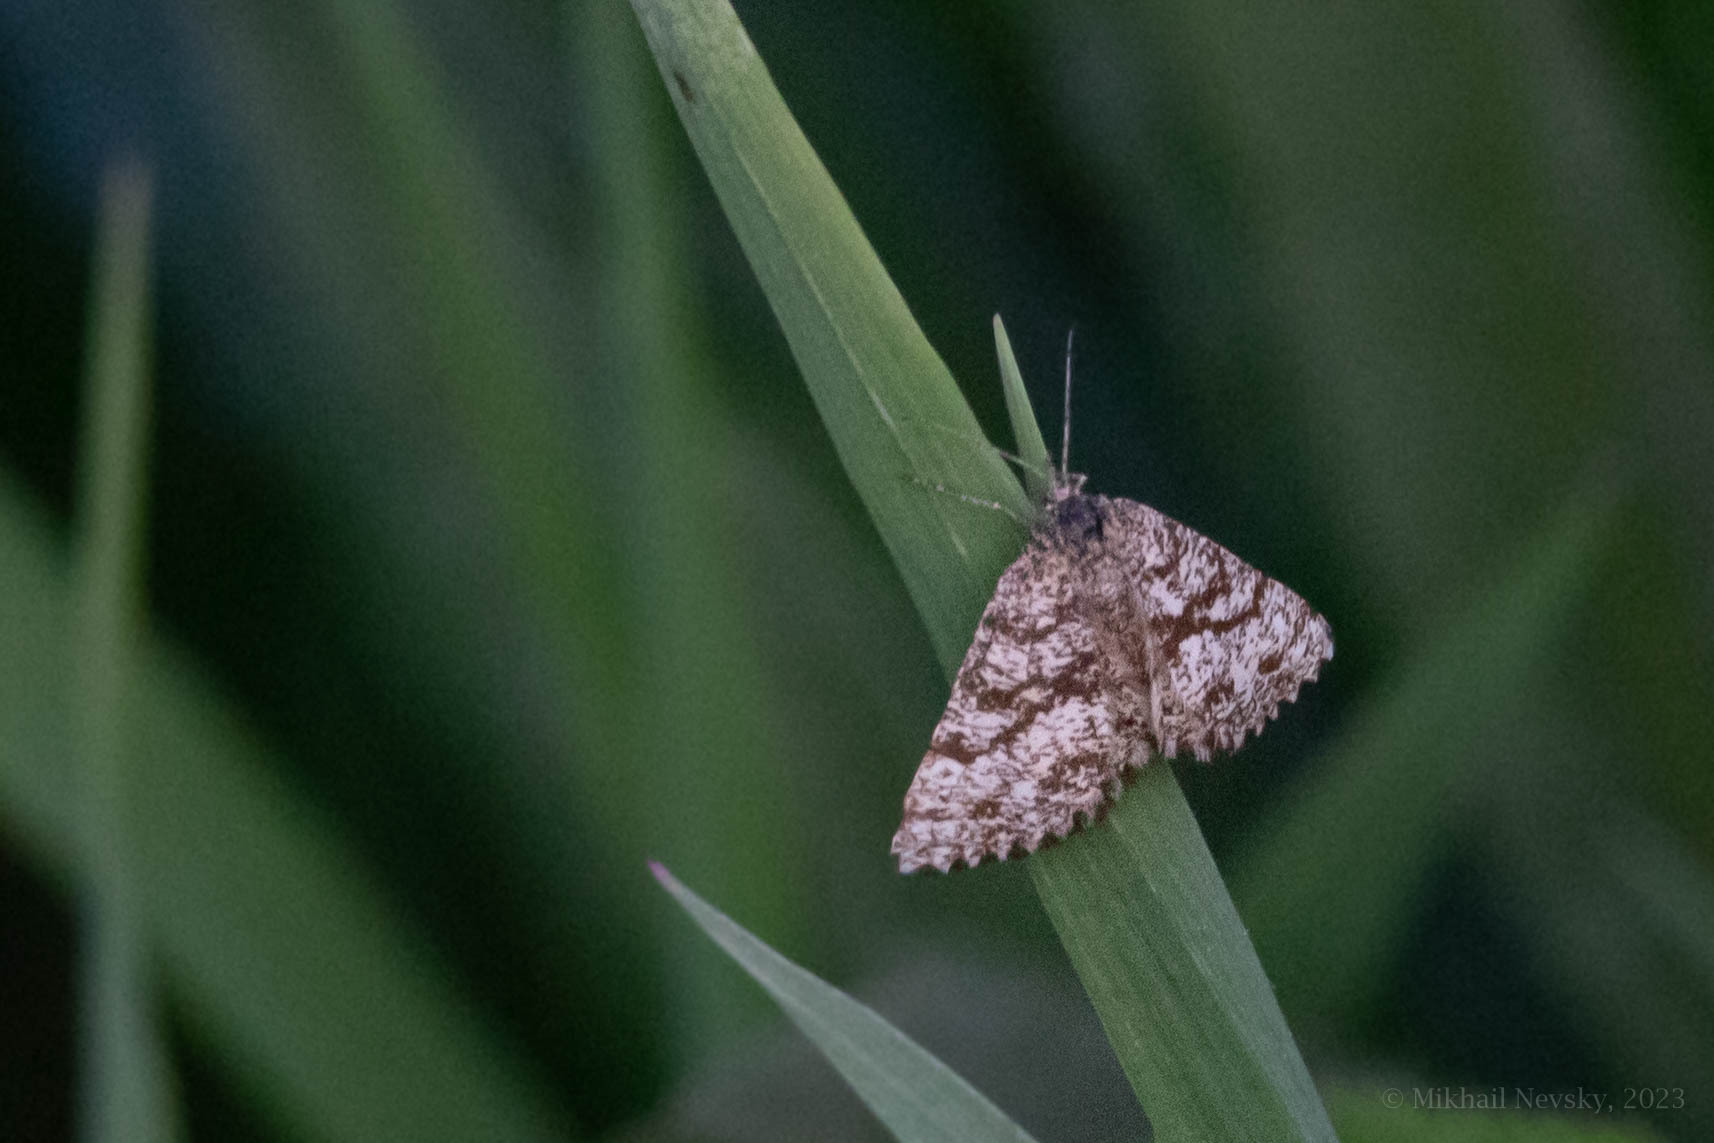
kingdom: Animalia
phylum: Arthropoda
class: Insecta
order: Lepidoptera
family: Geometridae
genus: Ematurga
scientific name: Ematurga atomaria
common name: Common heath
